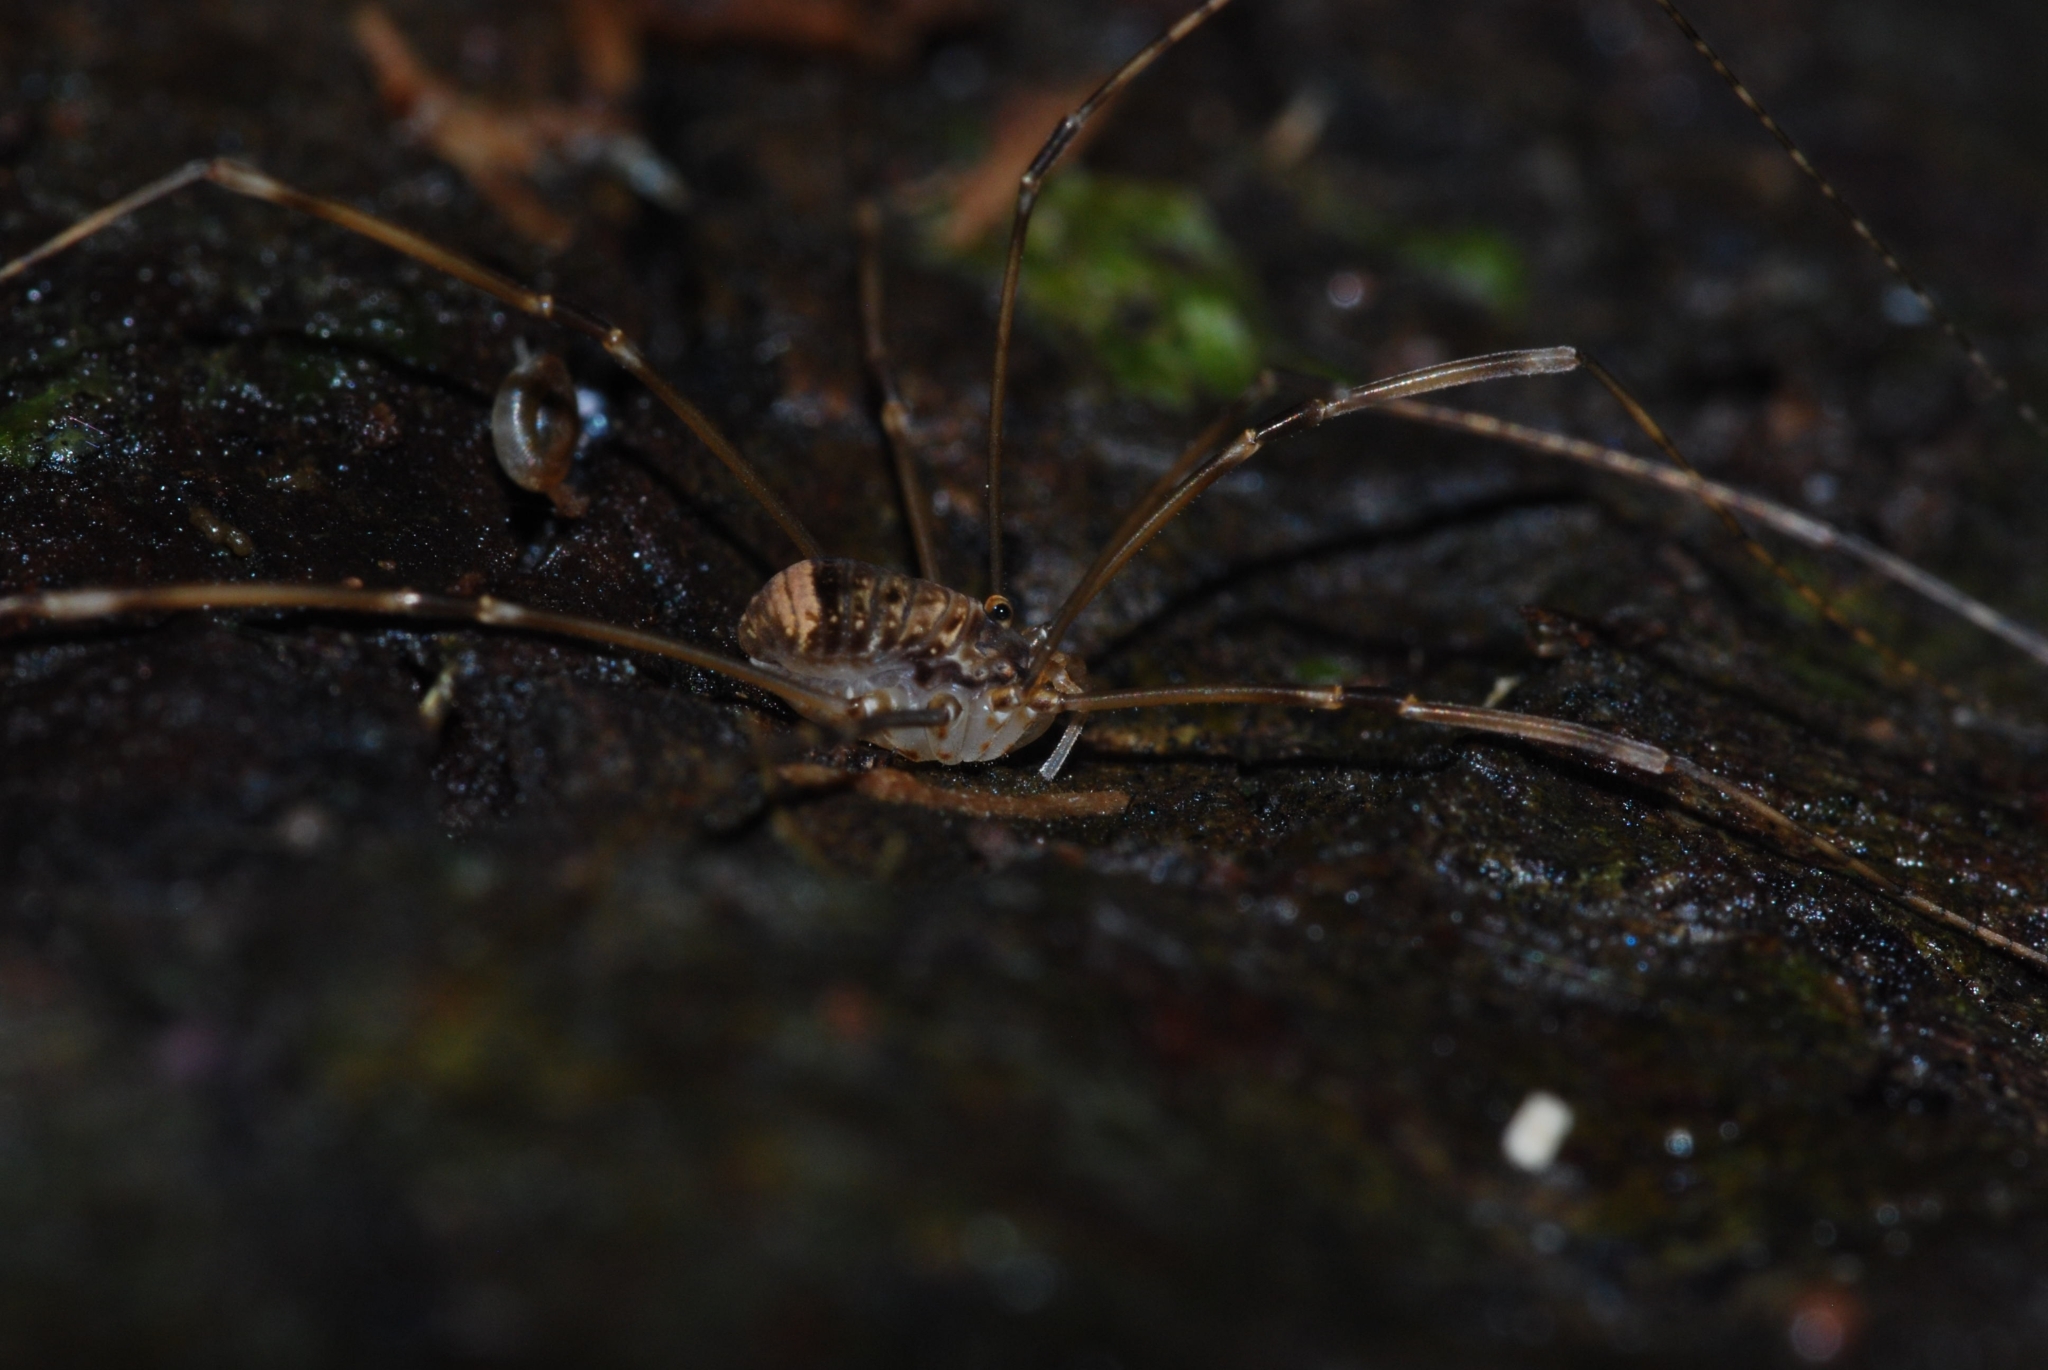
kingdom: Animalia
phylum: Arthropoda
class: Arachnida
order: Opiliones
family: Sclerosomatidae
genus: Leiobunum
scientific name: Leiobunum blackwalli
